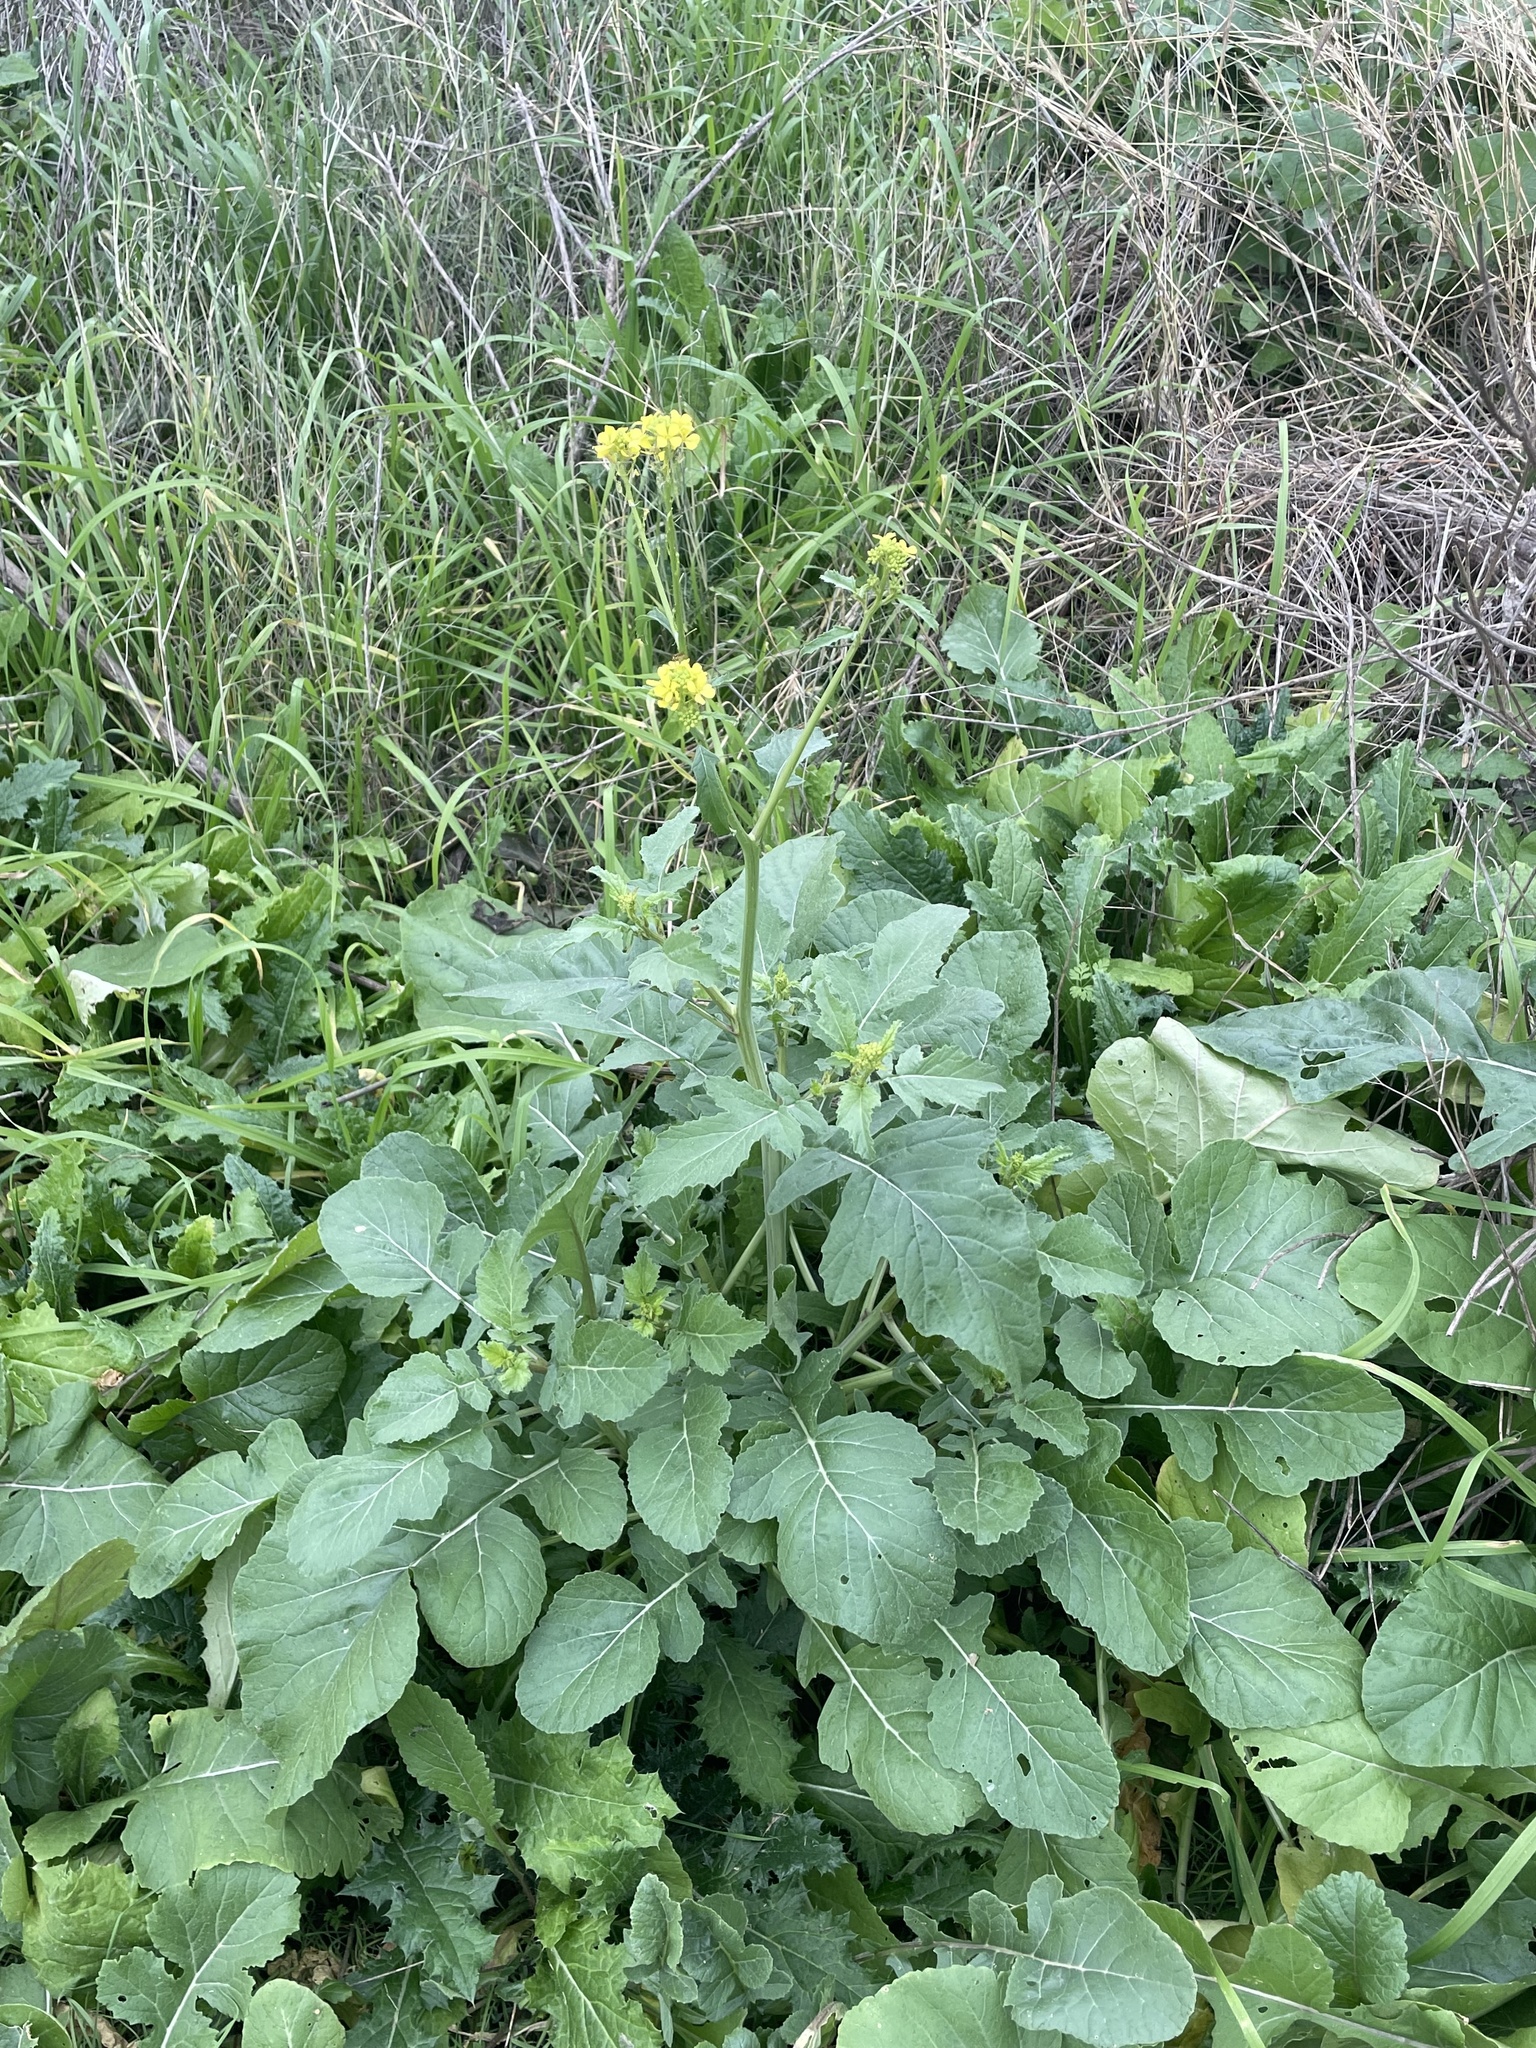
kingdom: Plantae
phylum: Tracheophyta
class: Magnoliopsida
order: Brassicales
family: Brassicaceae
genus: Rapistrum
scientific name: Rapistrum rugosum
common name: Annual bastardcabbage
